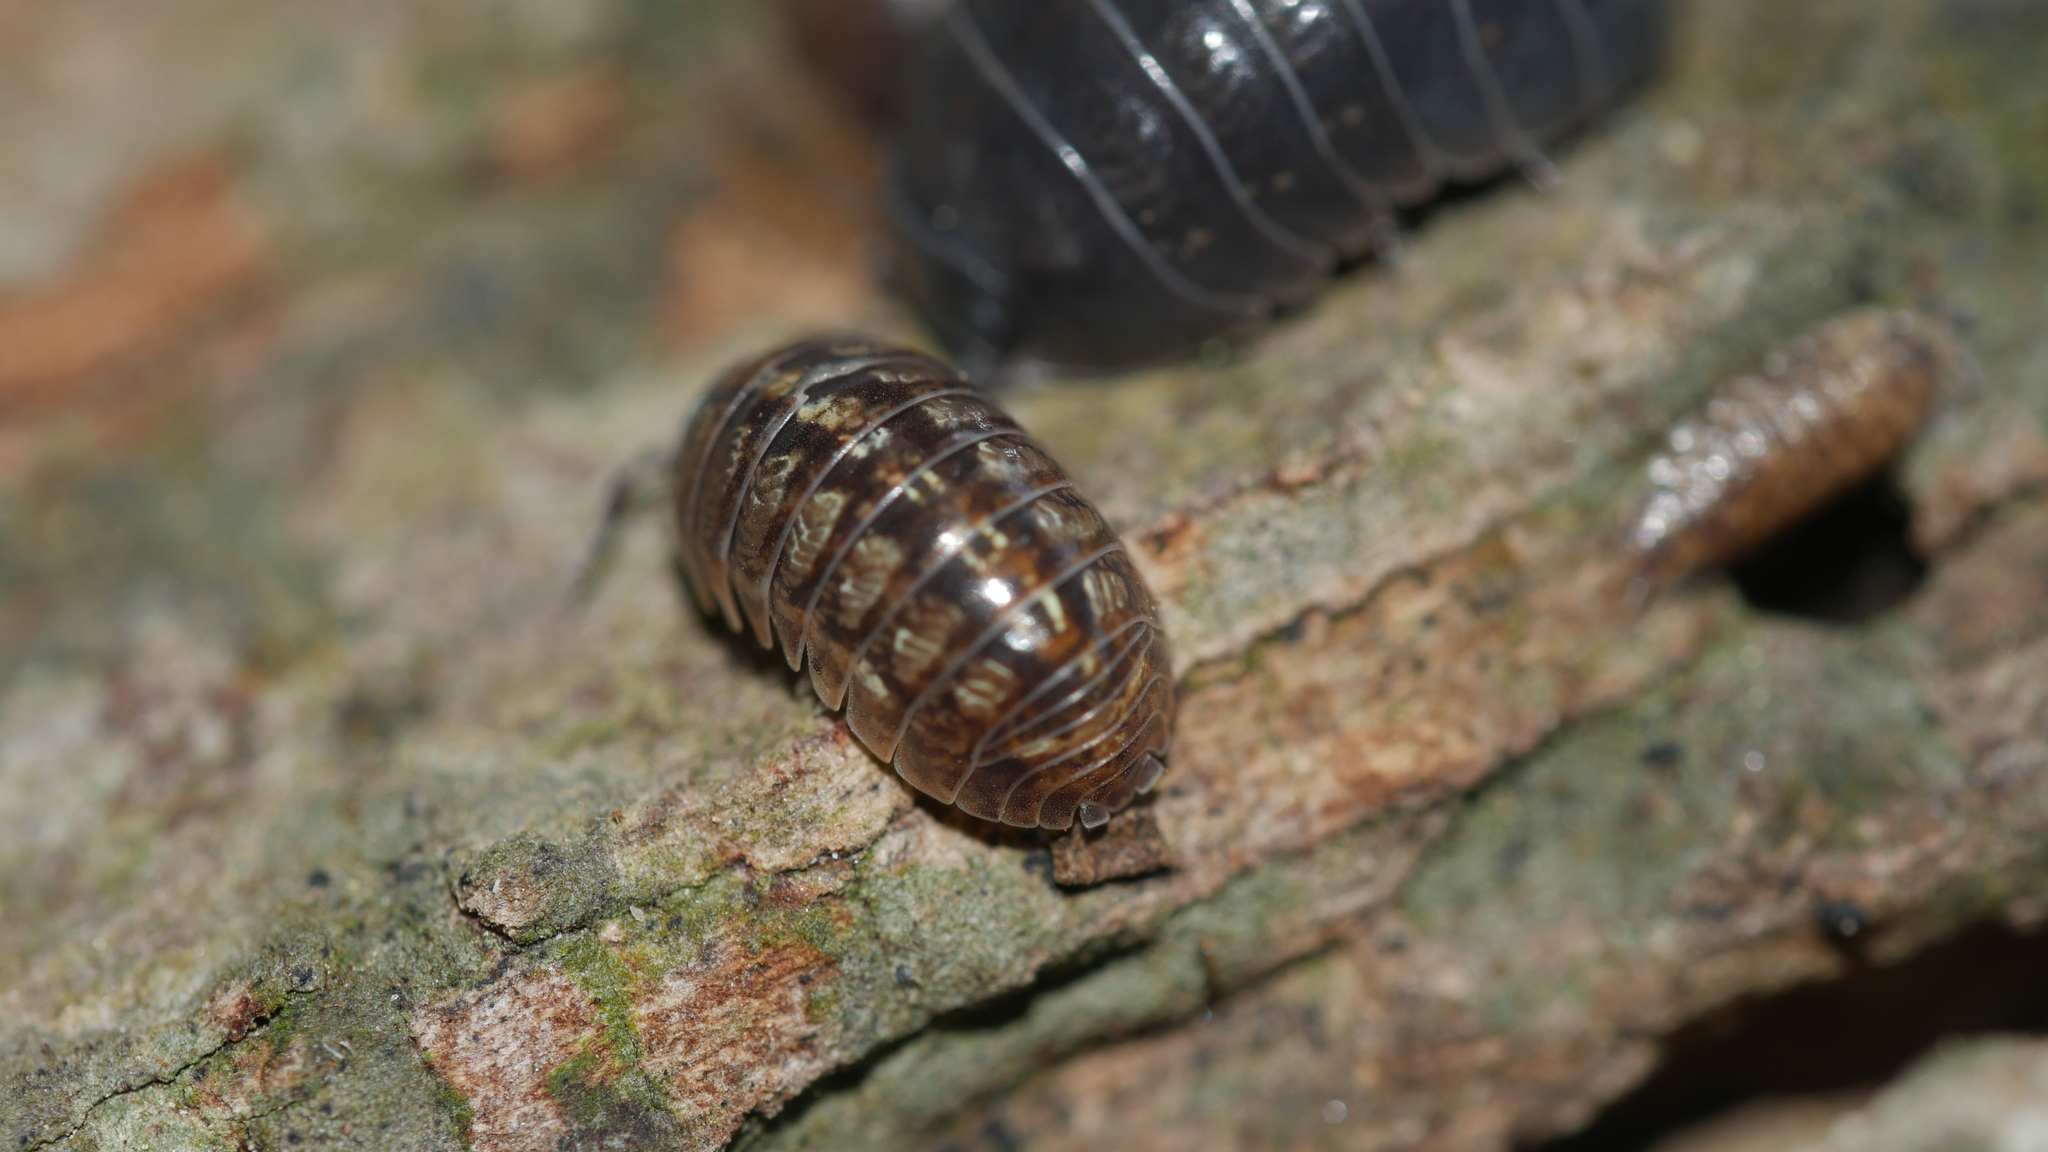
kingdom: Animalia
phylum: Arthropoda
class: Malacostraca
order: Isopoda
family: Armadillidiidae
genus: Armadillidium
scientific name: Armadillidium vulgare
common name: Common pill woodlouse
